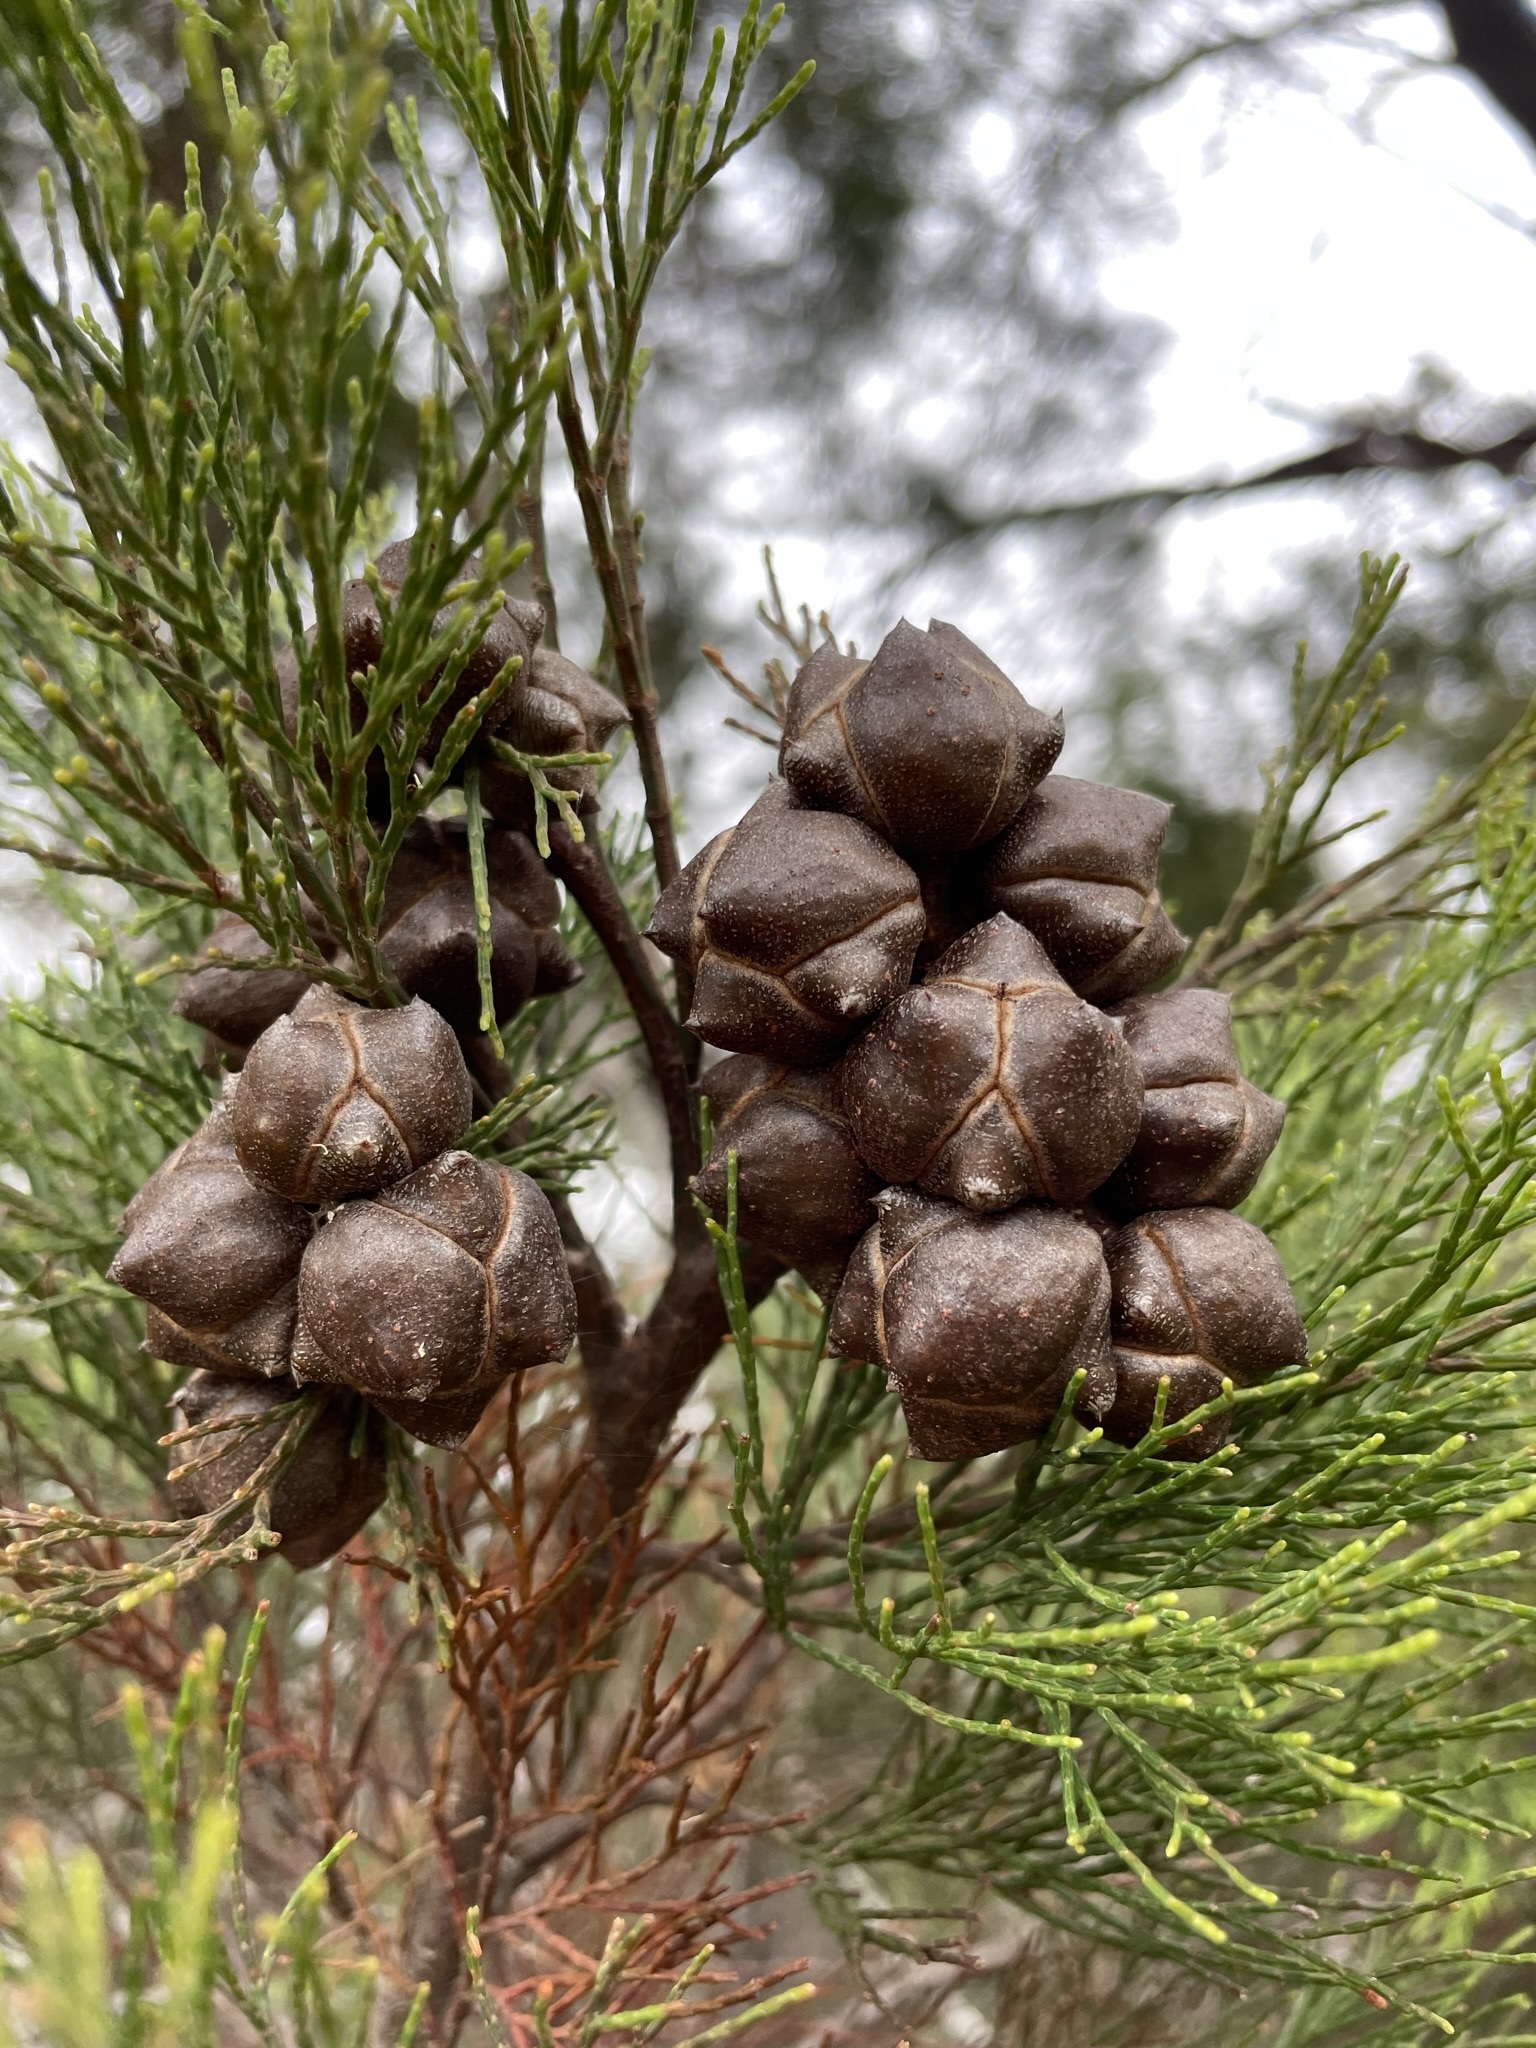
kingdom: Plantae
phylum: Tracheophyta
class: Pinopsida
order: Pinales
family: Cupressaceae
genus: Callitris
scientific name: Callitris rhomboidea
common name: Illawara mountain pine
